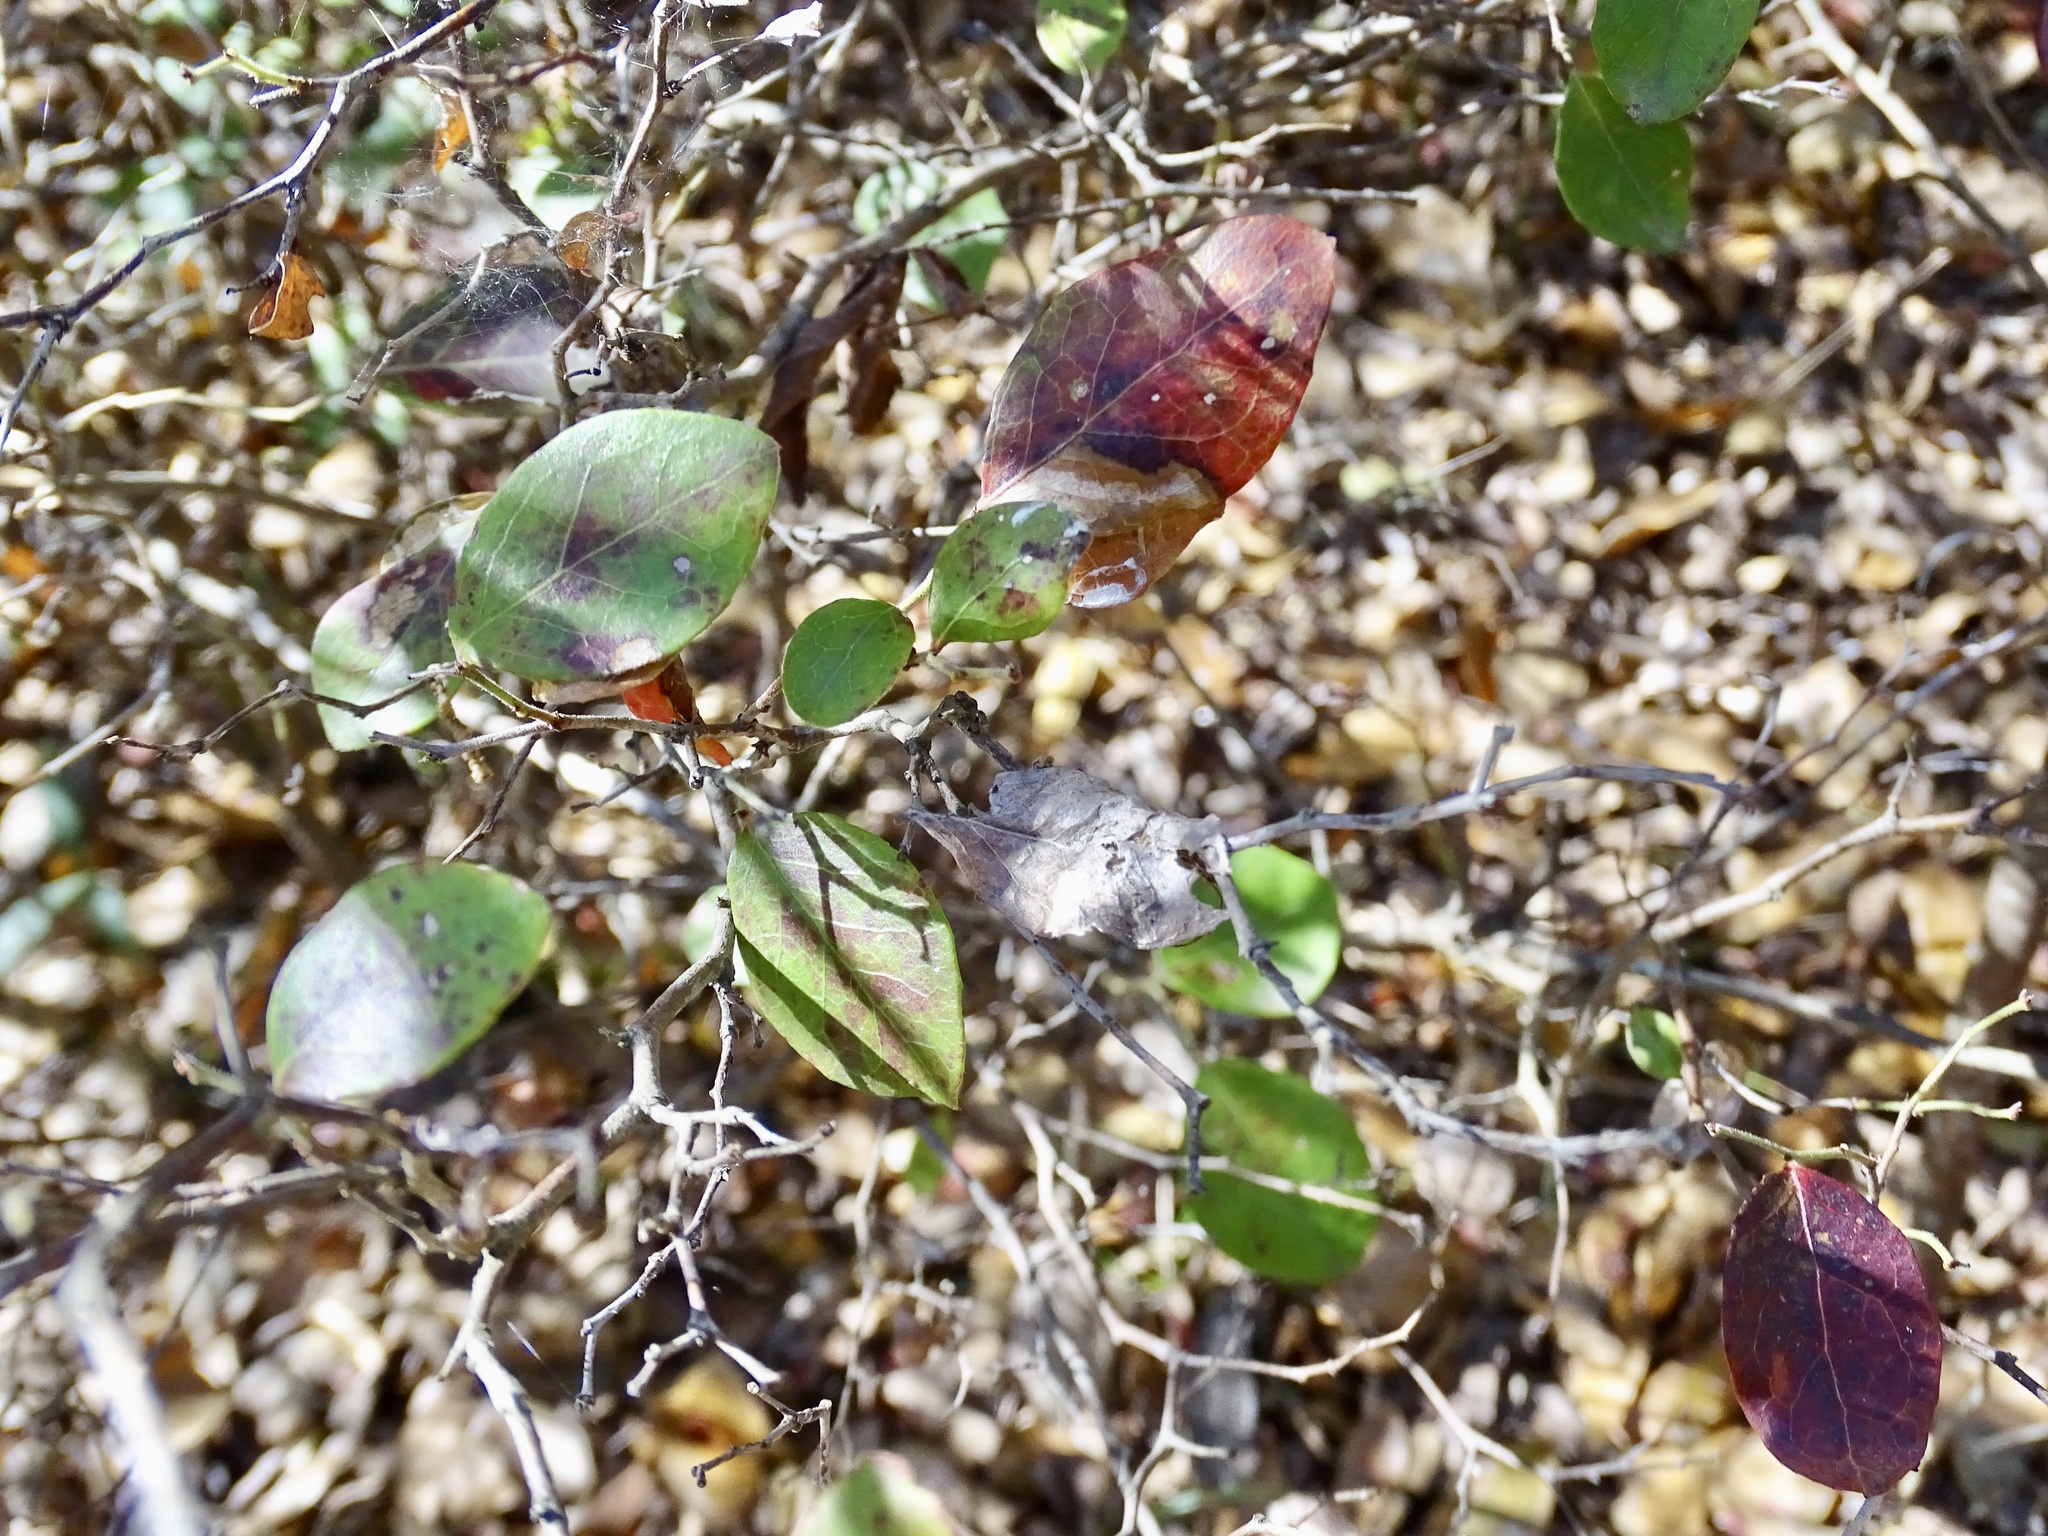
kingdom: Plantae
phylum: Tracheophyta
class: Magnoliopsida
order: Ericales
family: Ericaceae
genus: Vaccinium
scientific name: Vaccinium arboreum
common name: Farkleberry
